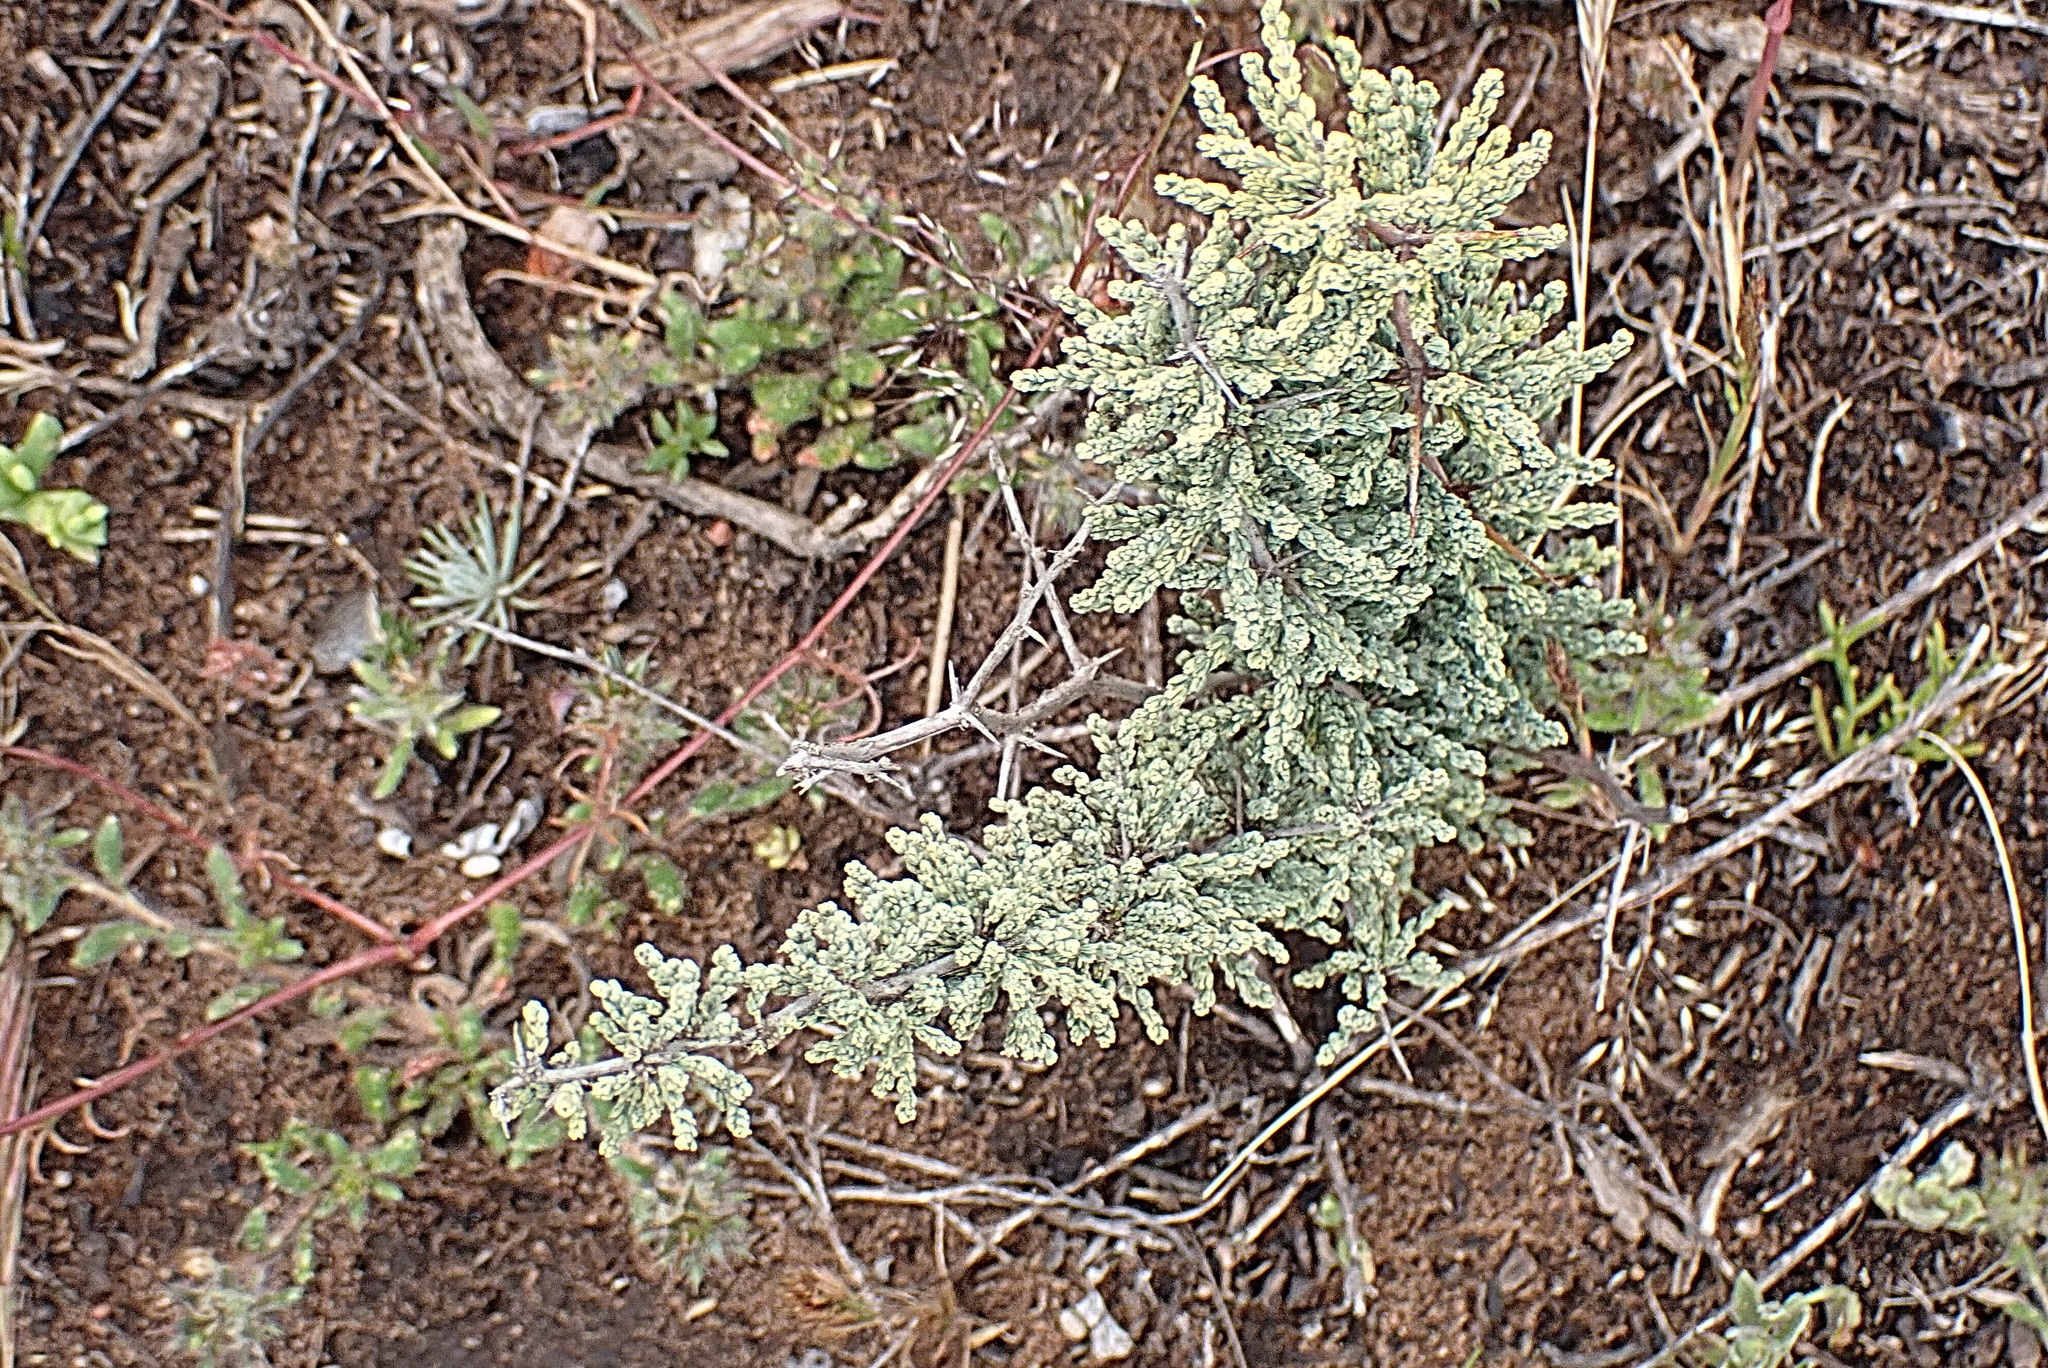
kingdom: Plantae
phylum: Tracheophyta
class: Liliopsida
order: Asparagales
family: Asparagaceae
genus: Asparagus
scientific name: Asparagus capensis
